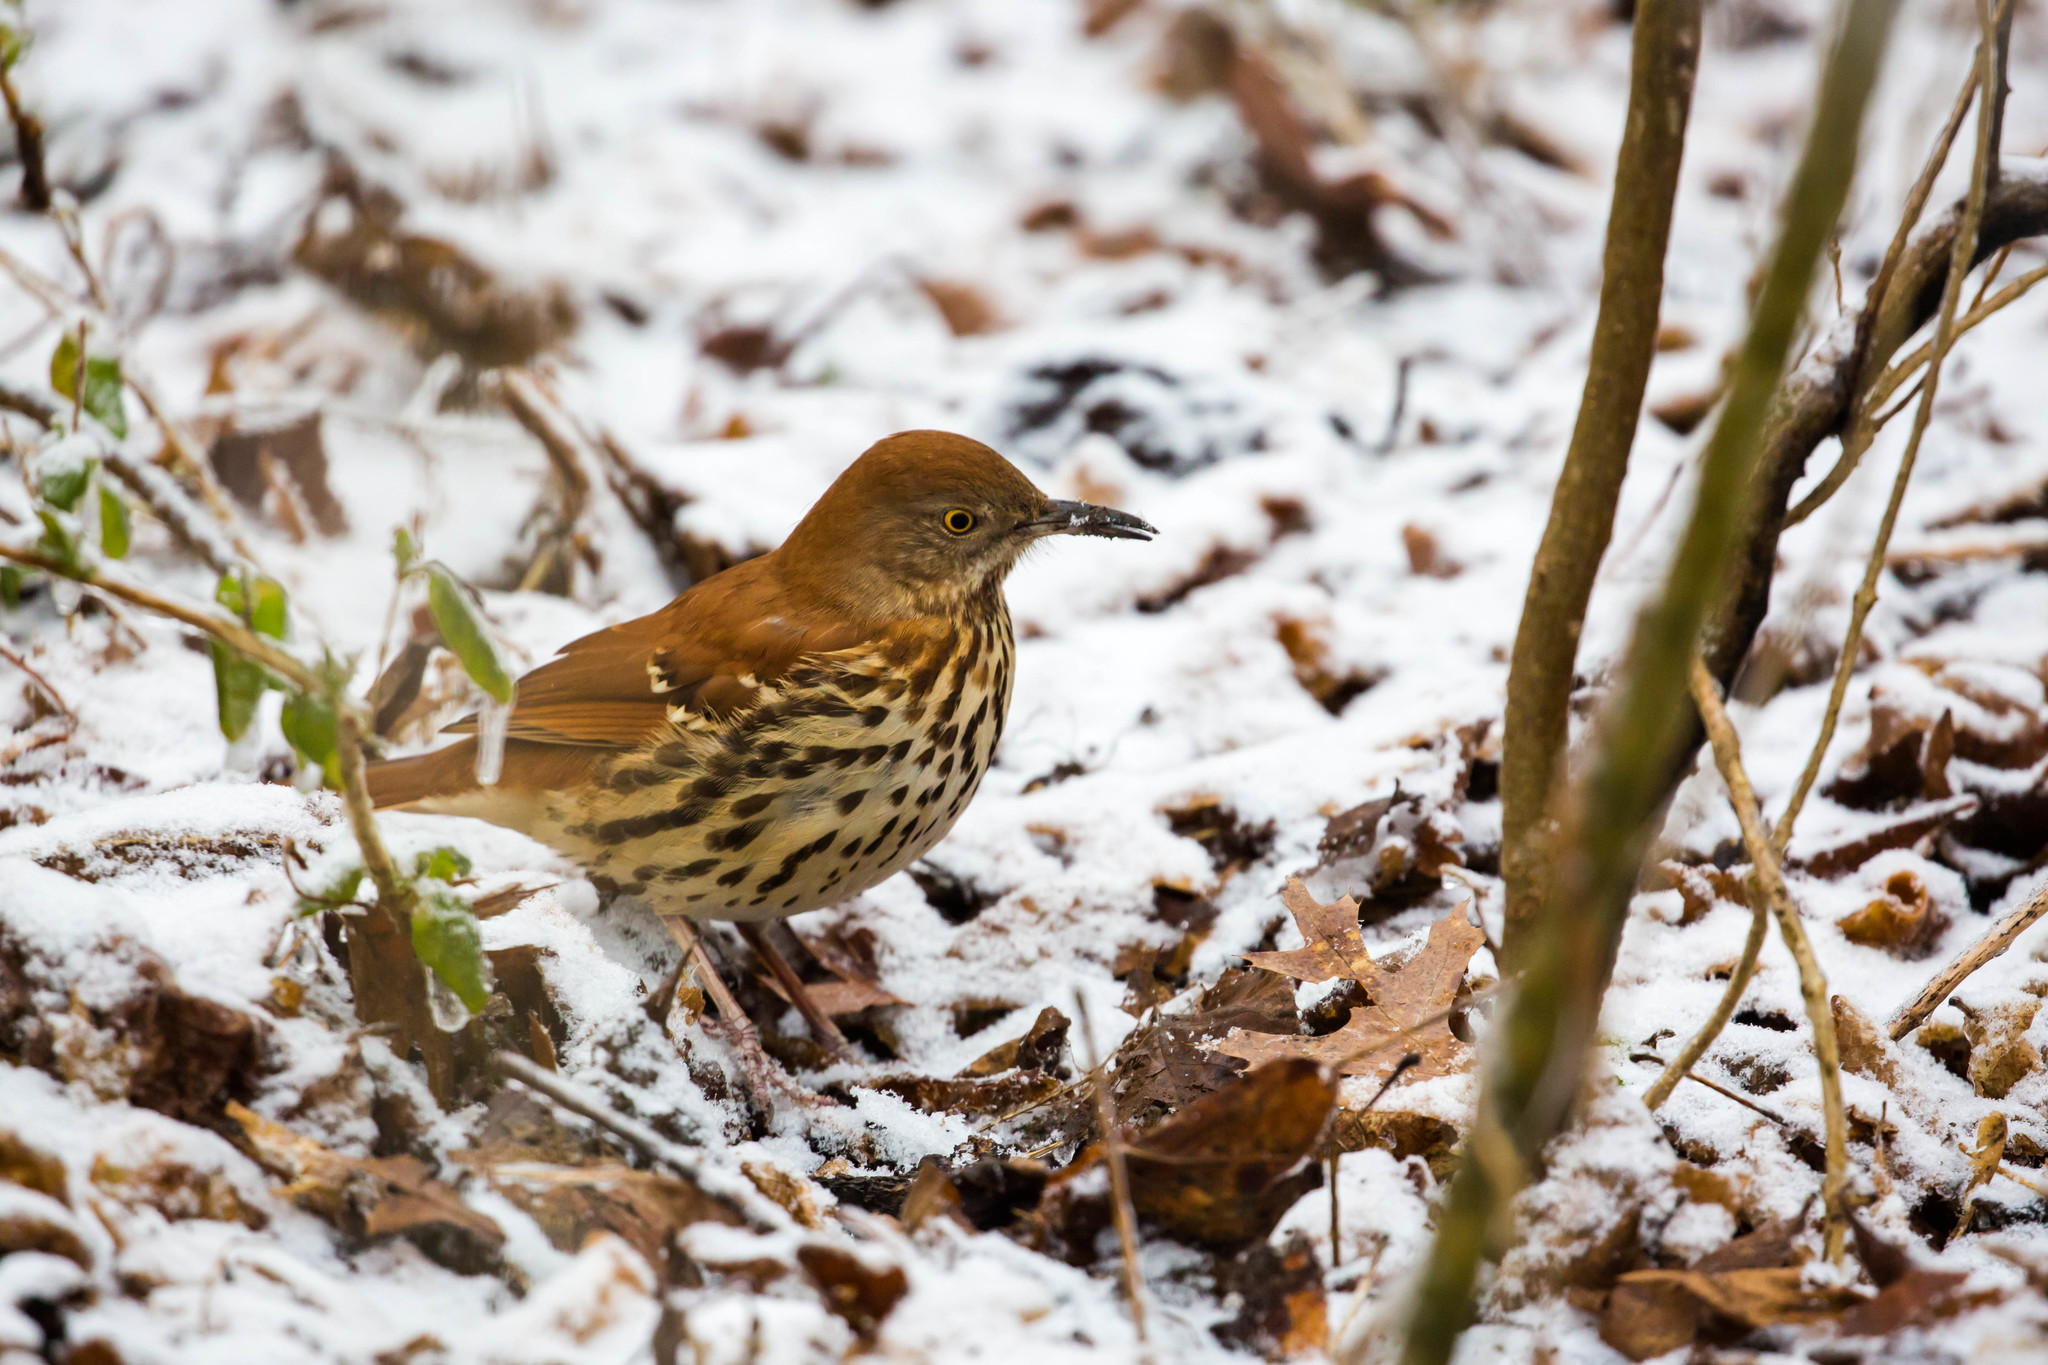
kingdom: Animalia
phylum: Chordata
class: Aves
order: Passeriformes
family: Mimidae
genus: Toxostoma
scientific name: Toxostoma rufum
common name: Brown thrasher
